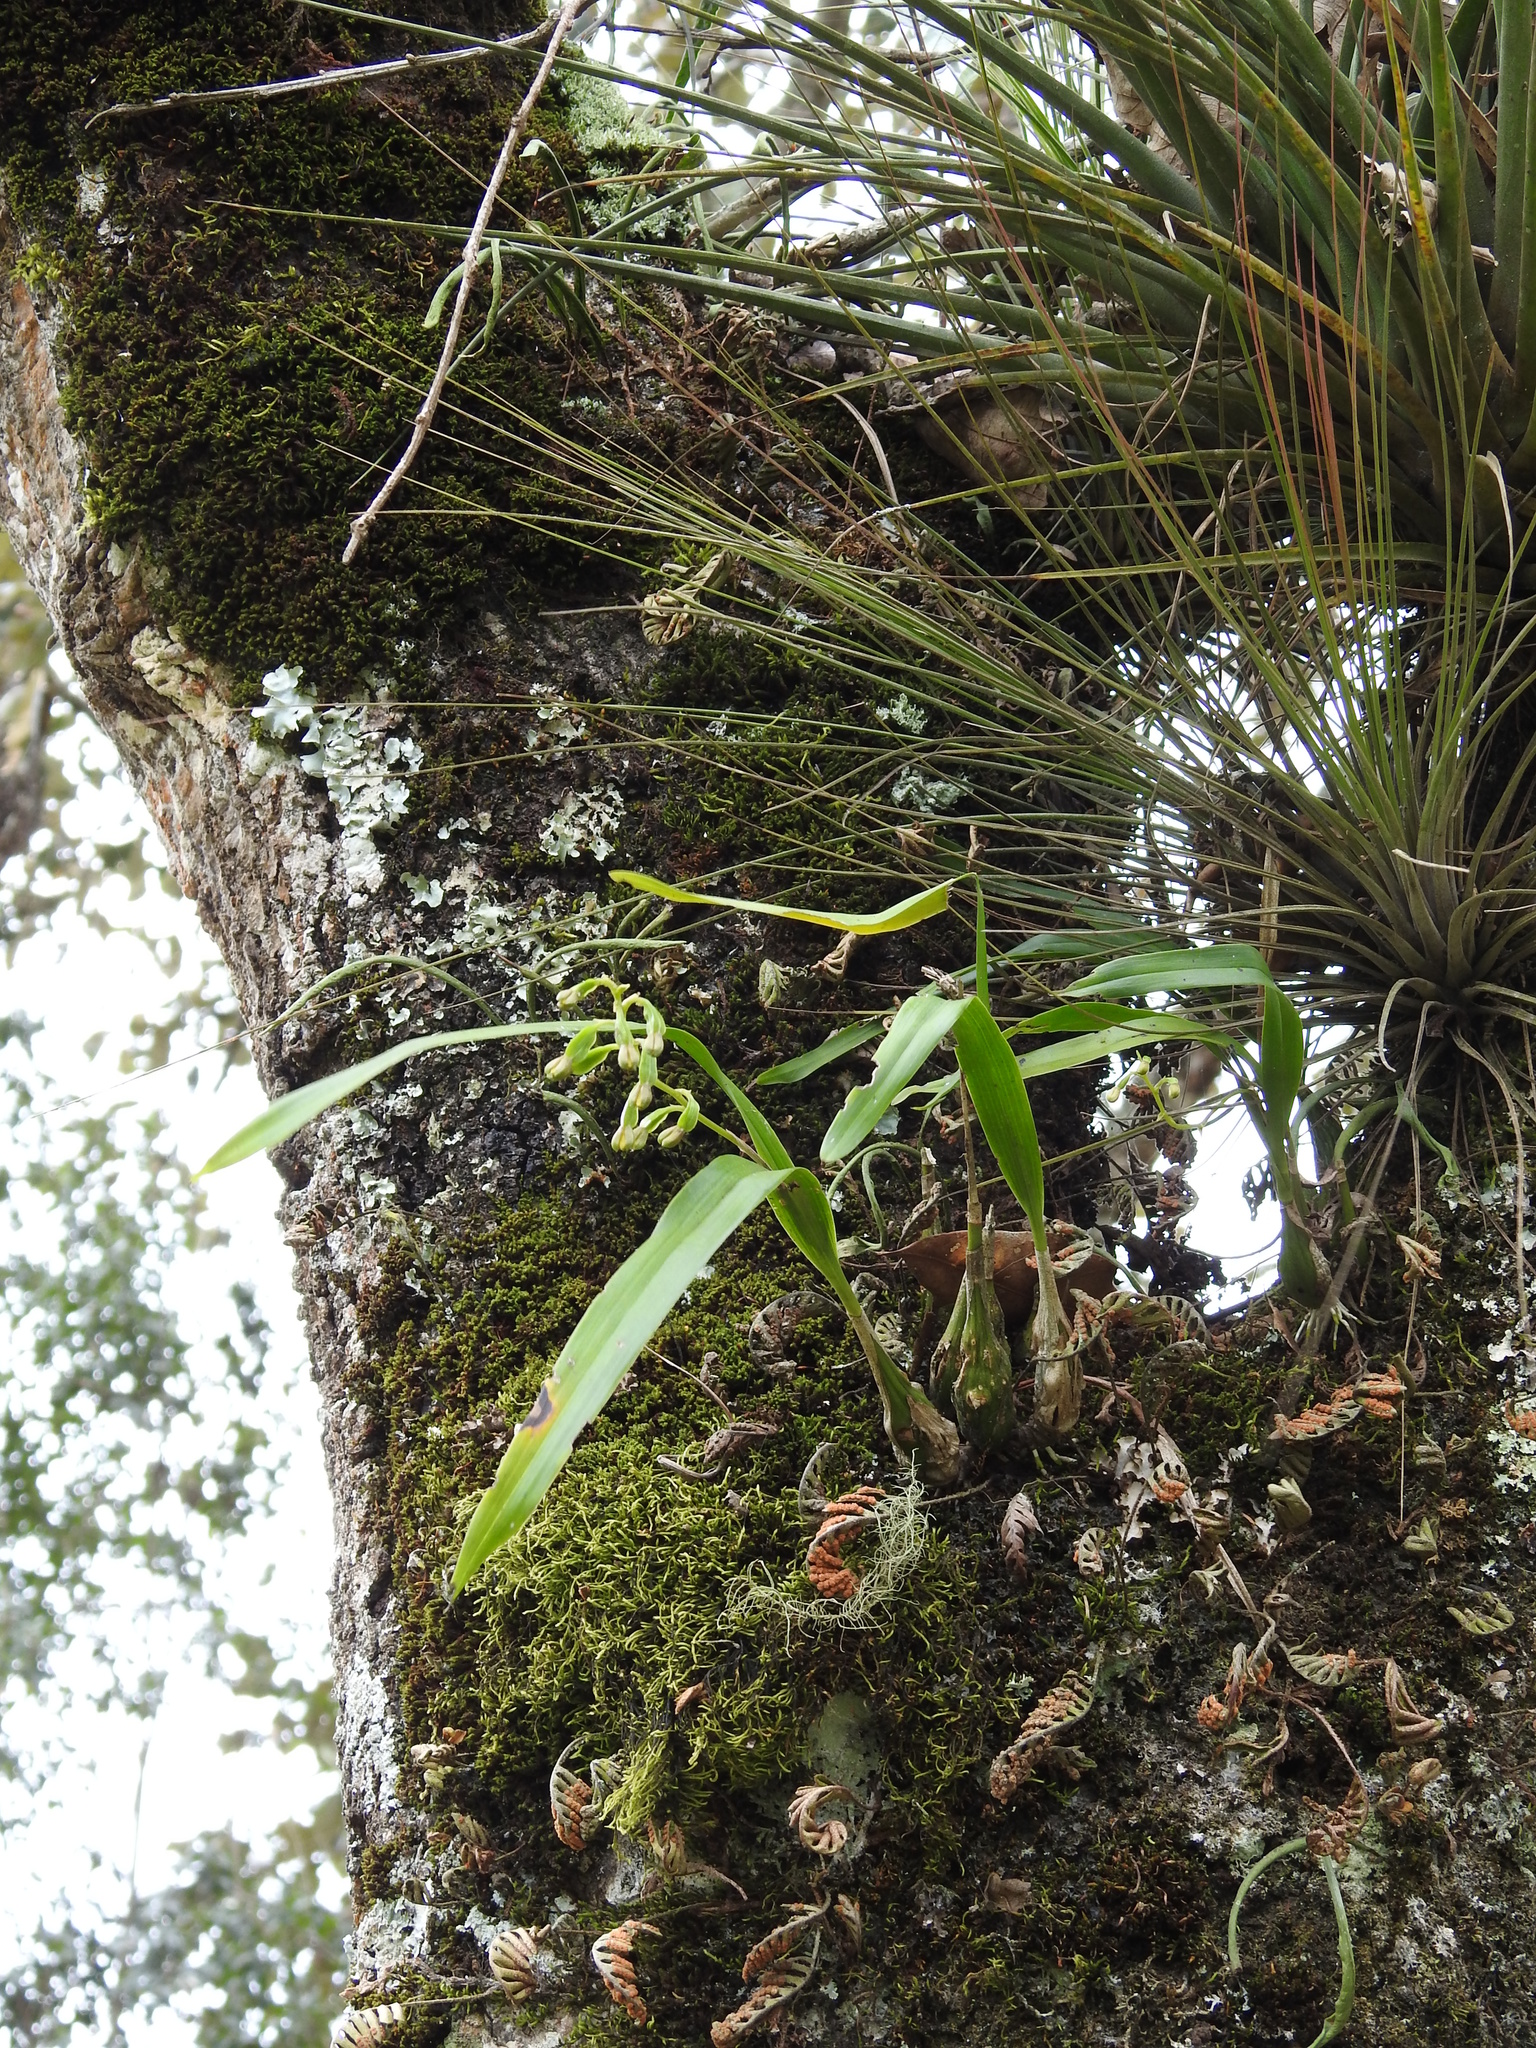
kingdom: Plantae
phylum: Tracheophyta
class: Liliopsida
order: Asparagales
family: Orchidaceae
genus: Prosthechea
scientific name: Prosthechea ochracea
